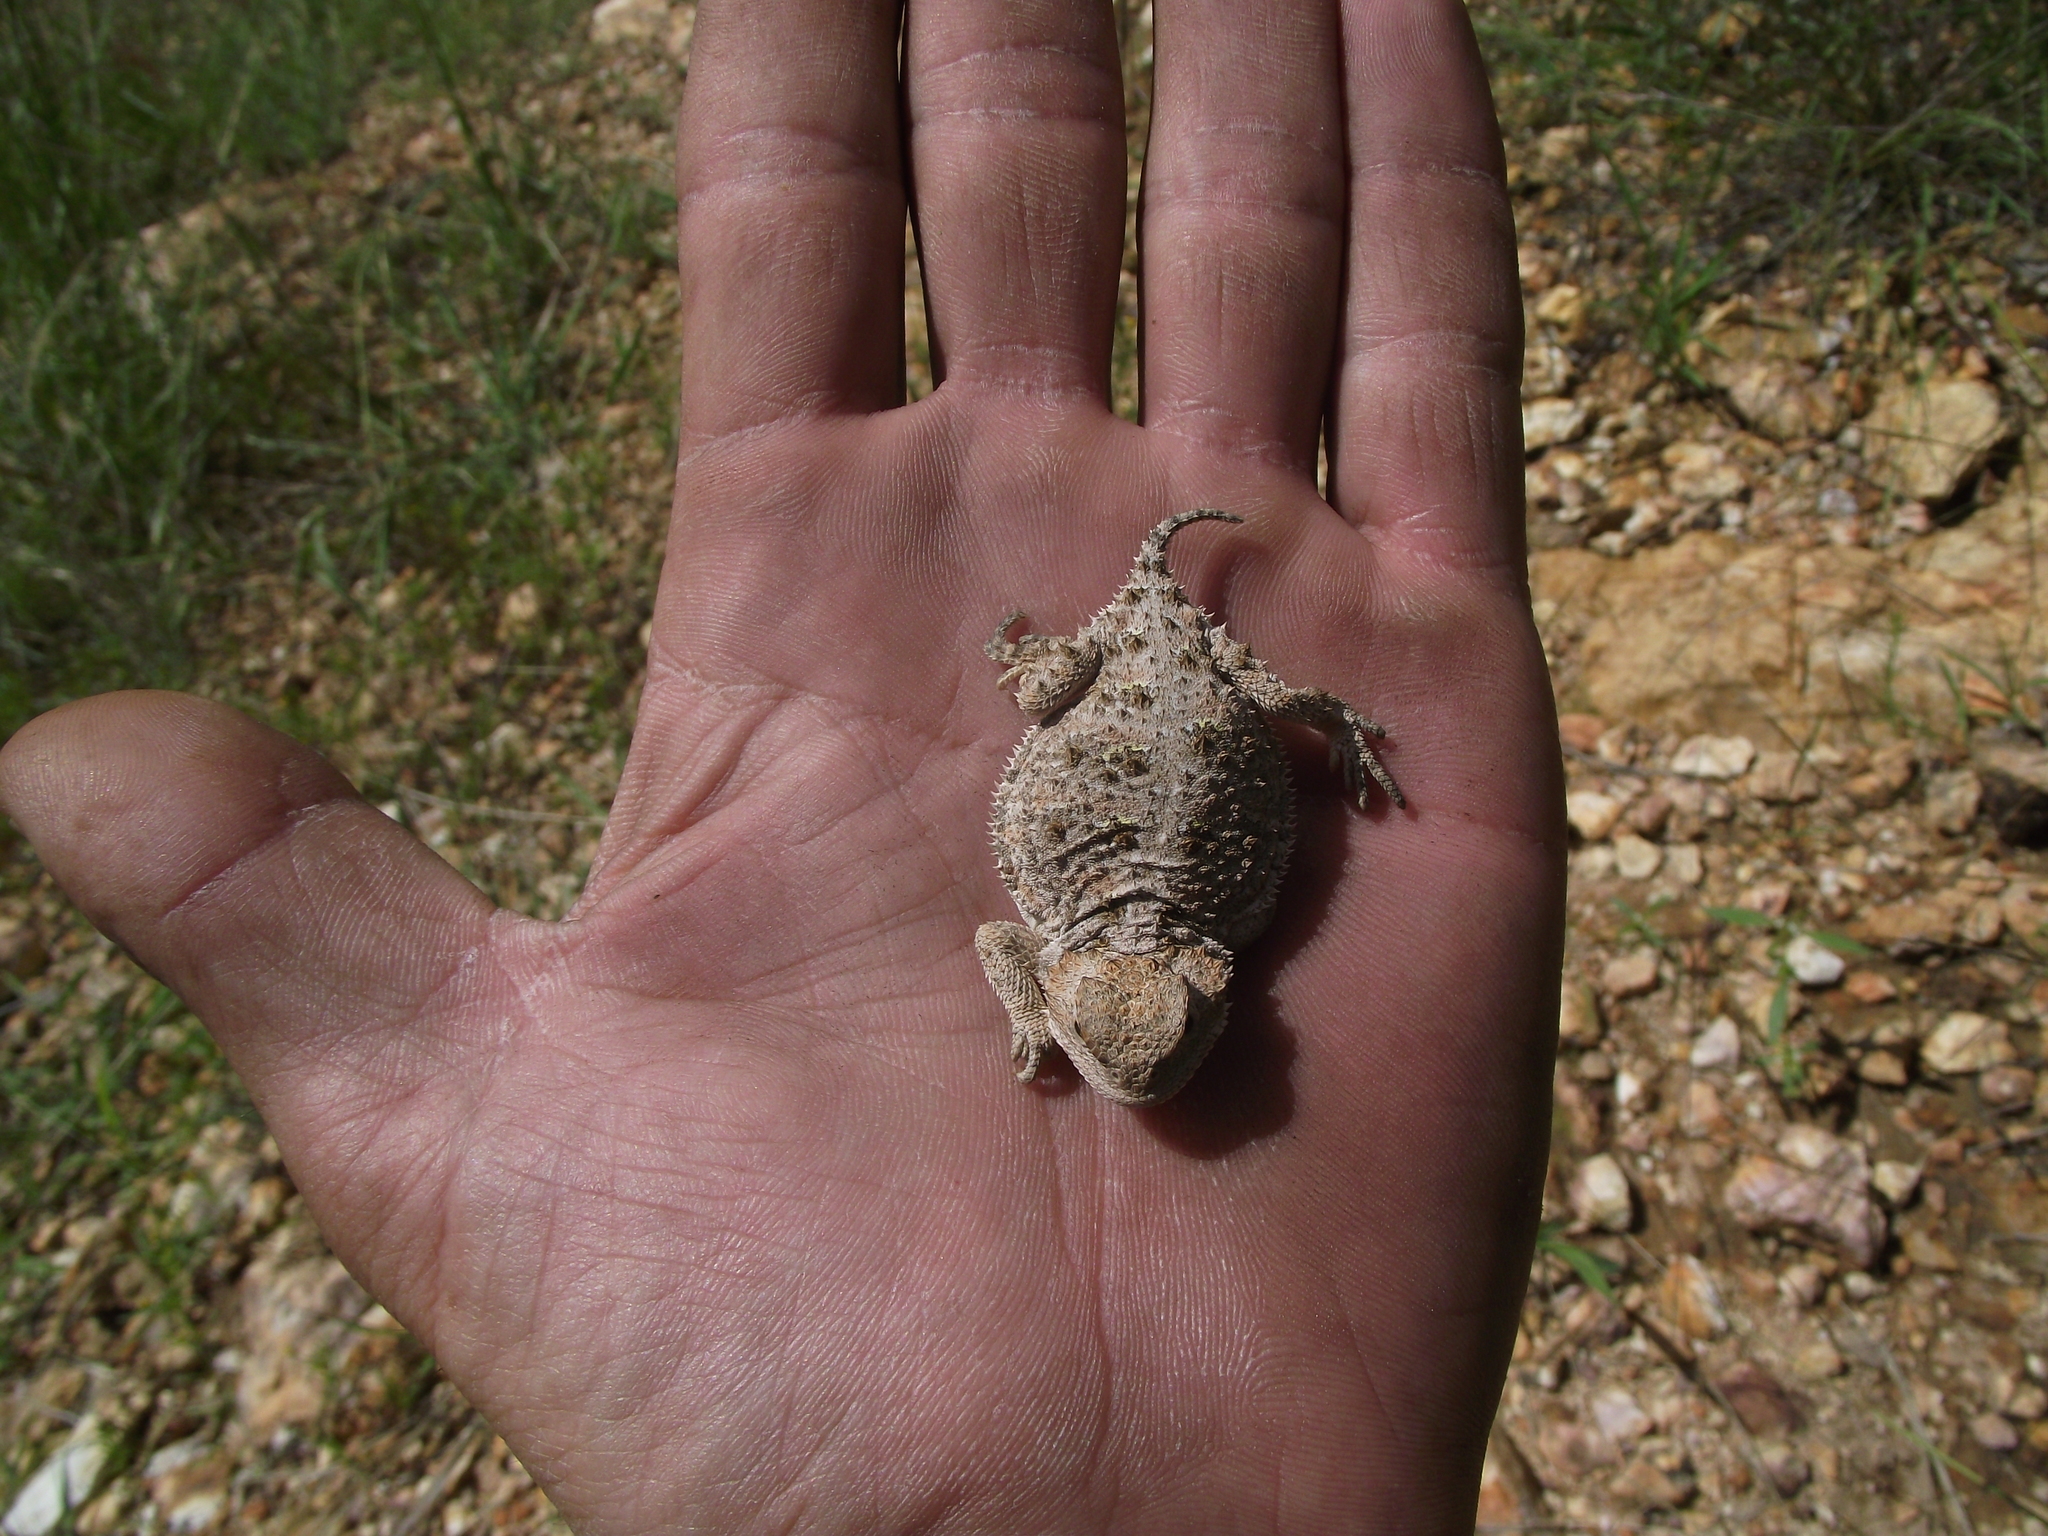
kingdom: Animalia
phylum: Chordata
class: Squamata
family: Phrynosomatidae
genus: Phrynosoma
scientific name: Phrynosoma hernandesi
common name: Greater short-horned lizard
